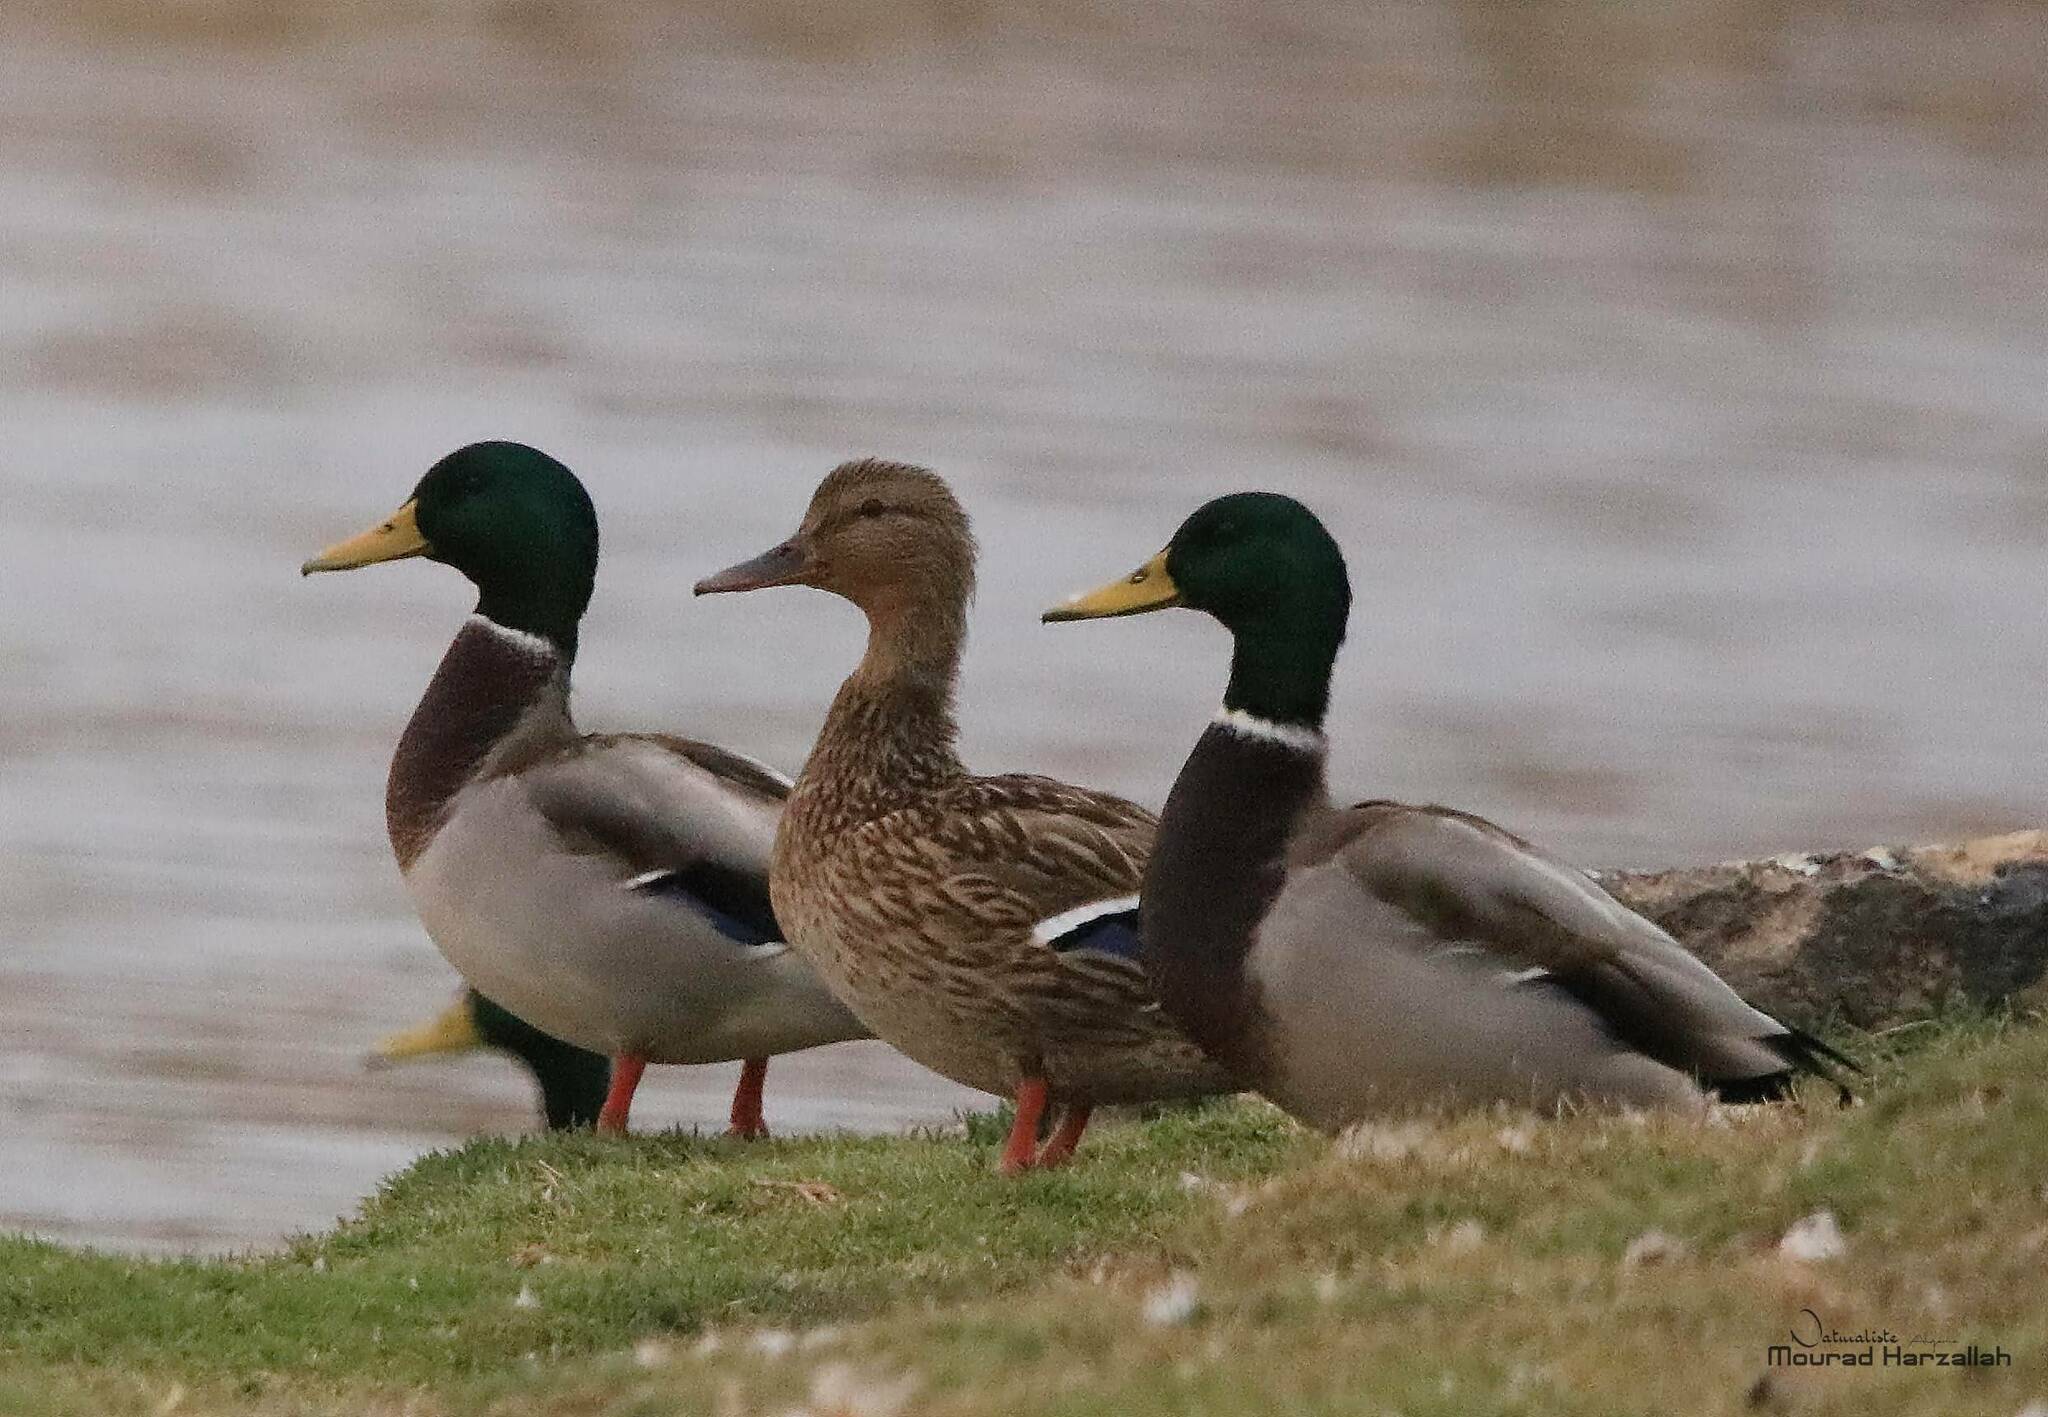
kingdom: Animalia
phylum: Chordata
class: Aves
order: Anseriformes
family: Anatidae
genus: Anas
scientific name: Anas platyrhynchos
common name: Mallard
